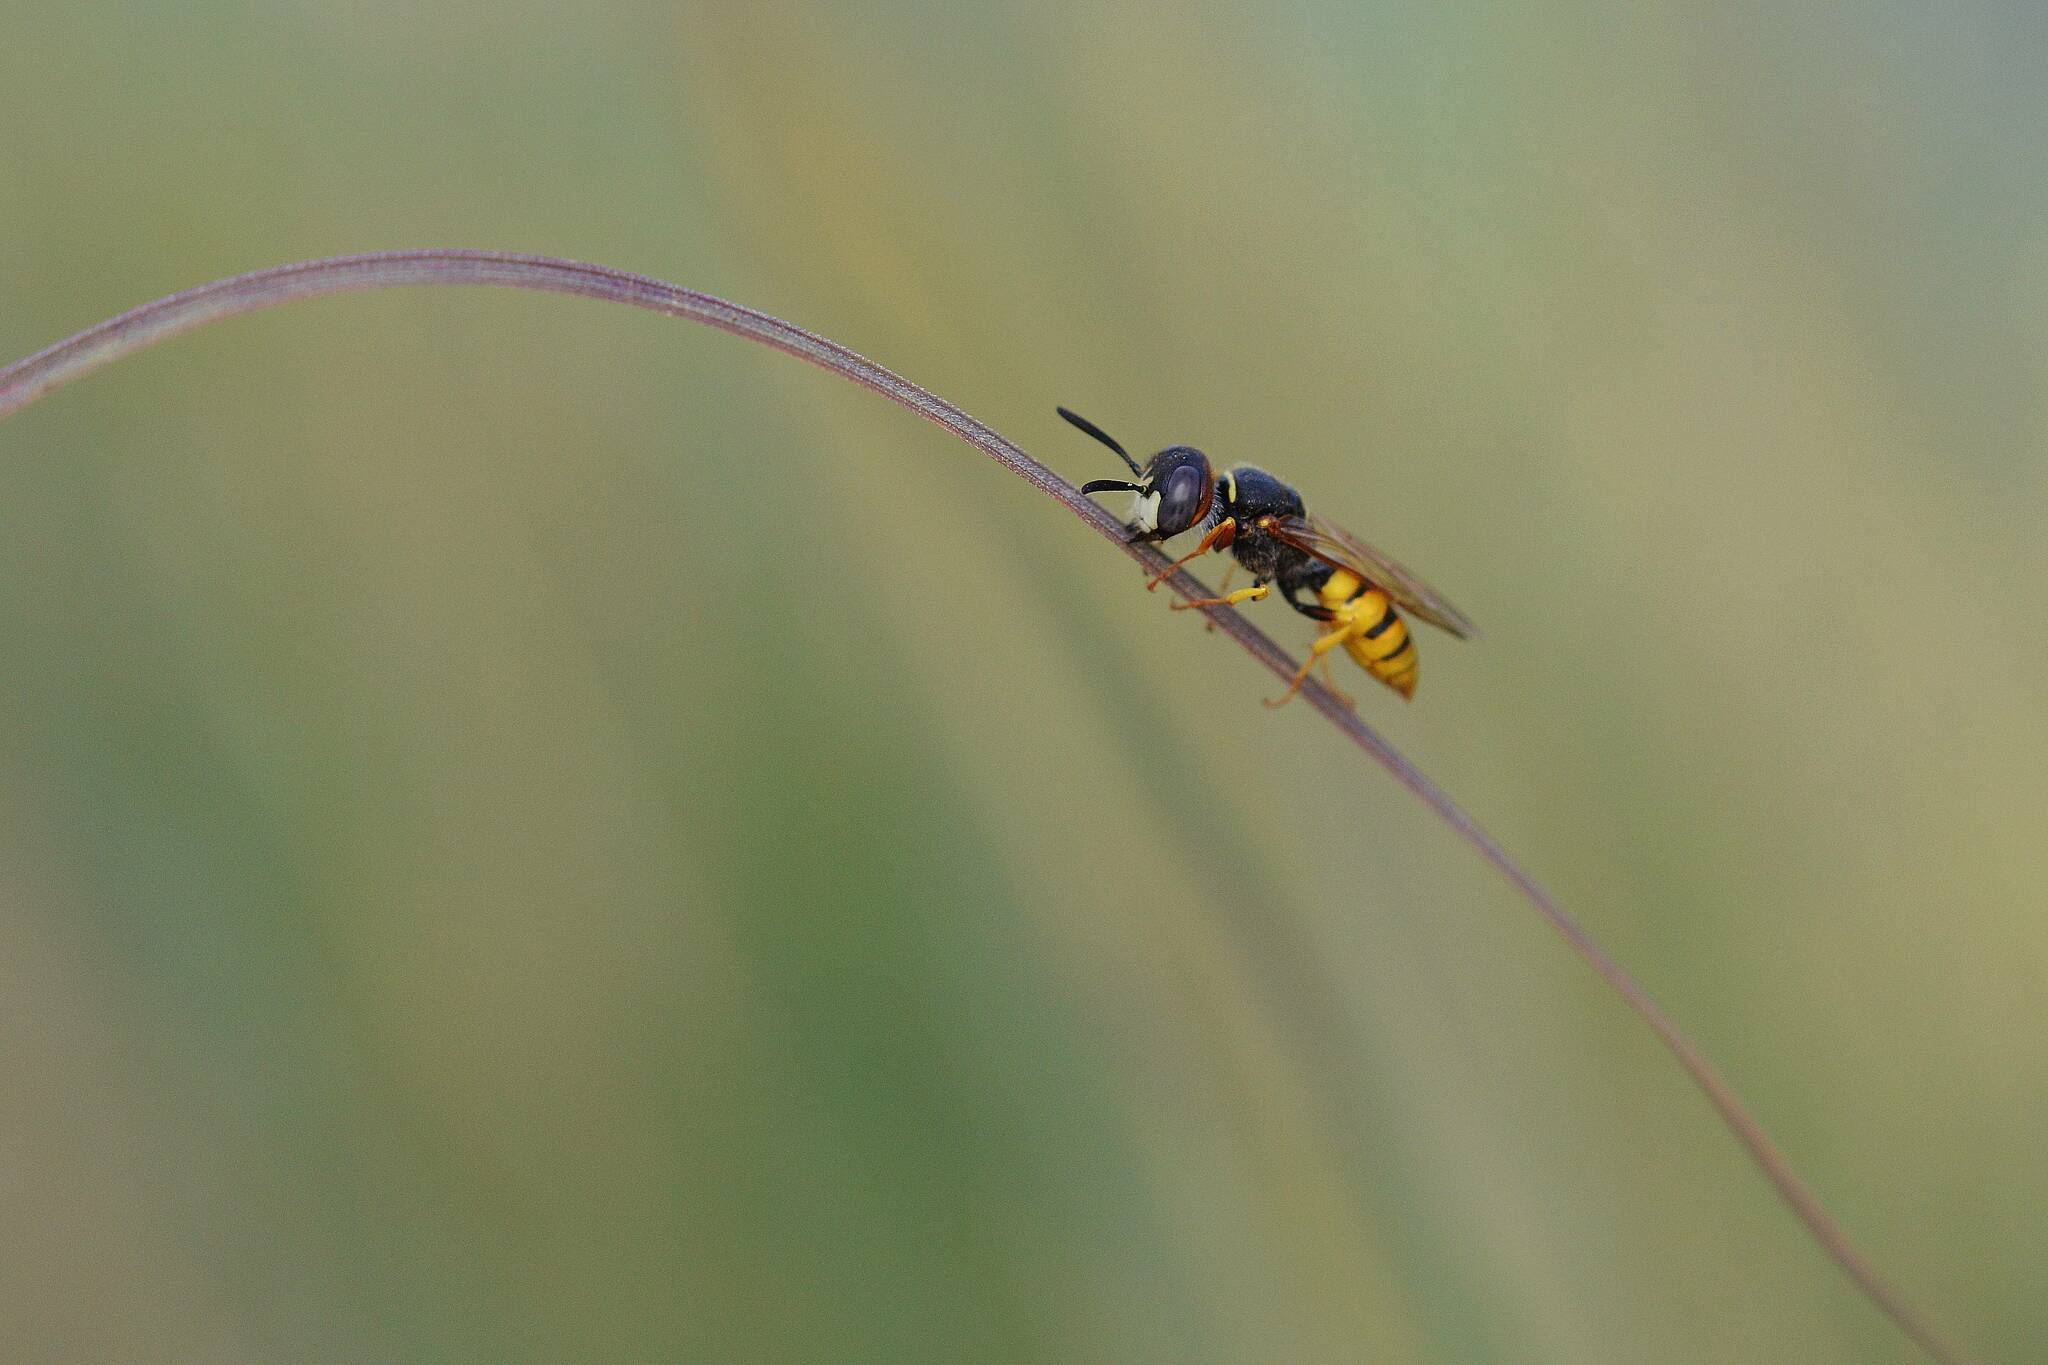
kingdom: Animalia
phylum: Arthropoda
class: Insecta
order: Hymenoptera
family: Crabronidae
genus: Philanthus
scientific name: Philanthus triangulum
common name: Bee wolf
